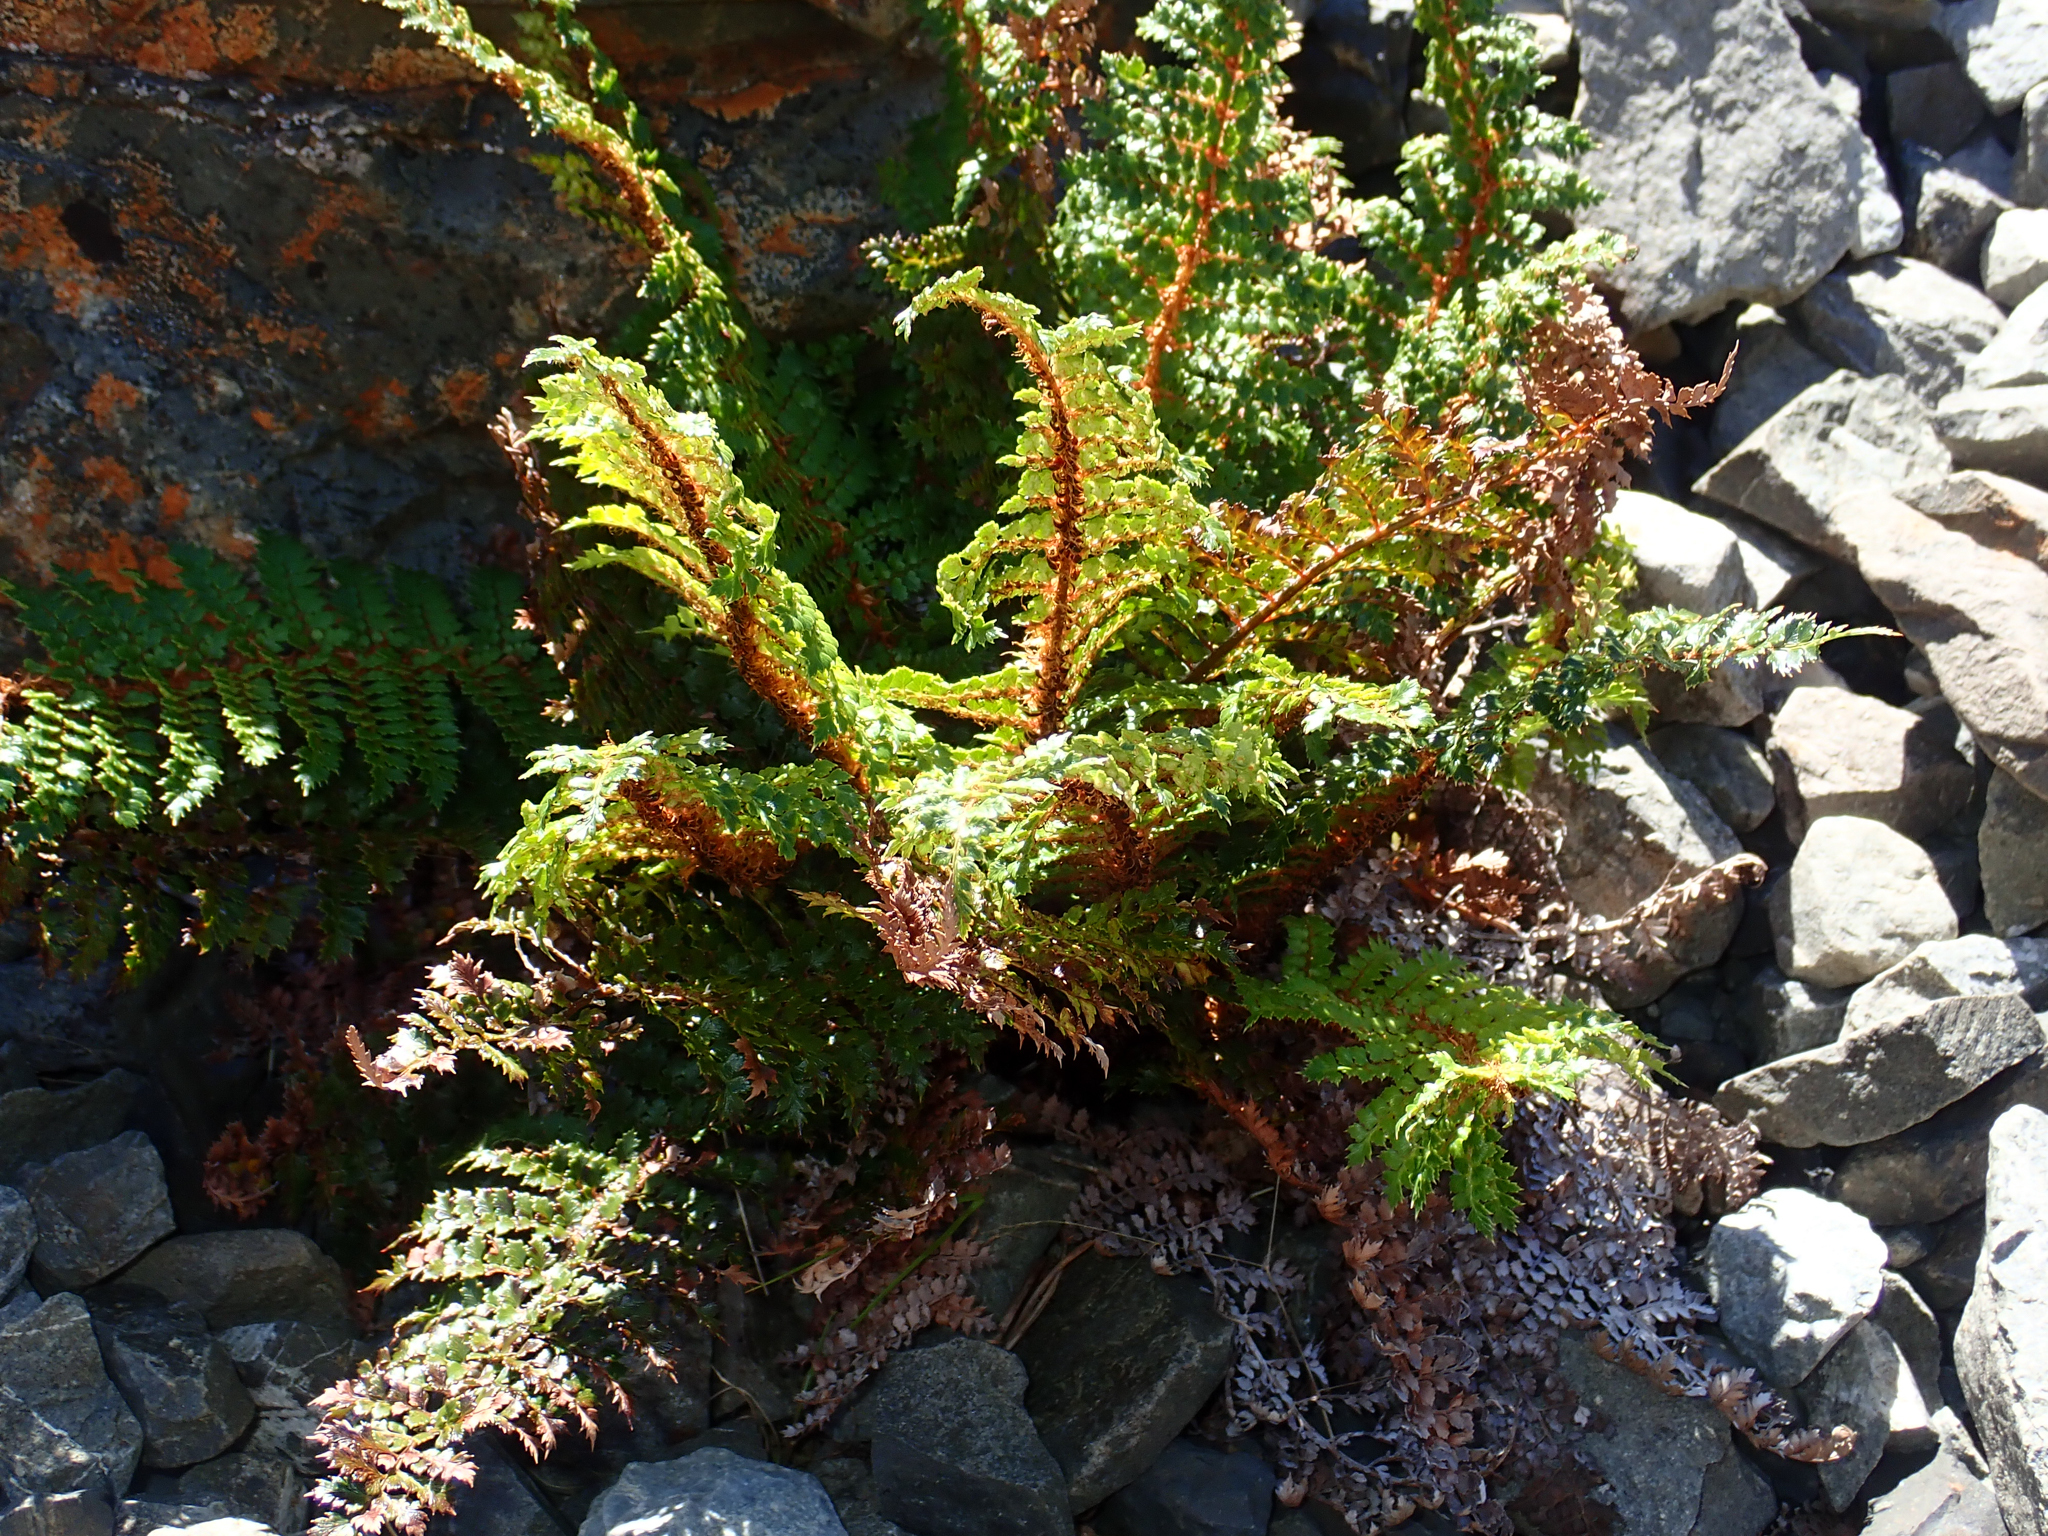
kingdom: Plantae
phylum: Tracheophyta
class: Polypodiopsida
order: Polypodiales
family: Dryopteridaceae
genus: Polystichum
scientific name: Polystichum vestitum
